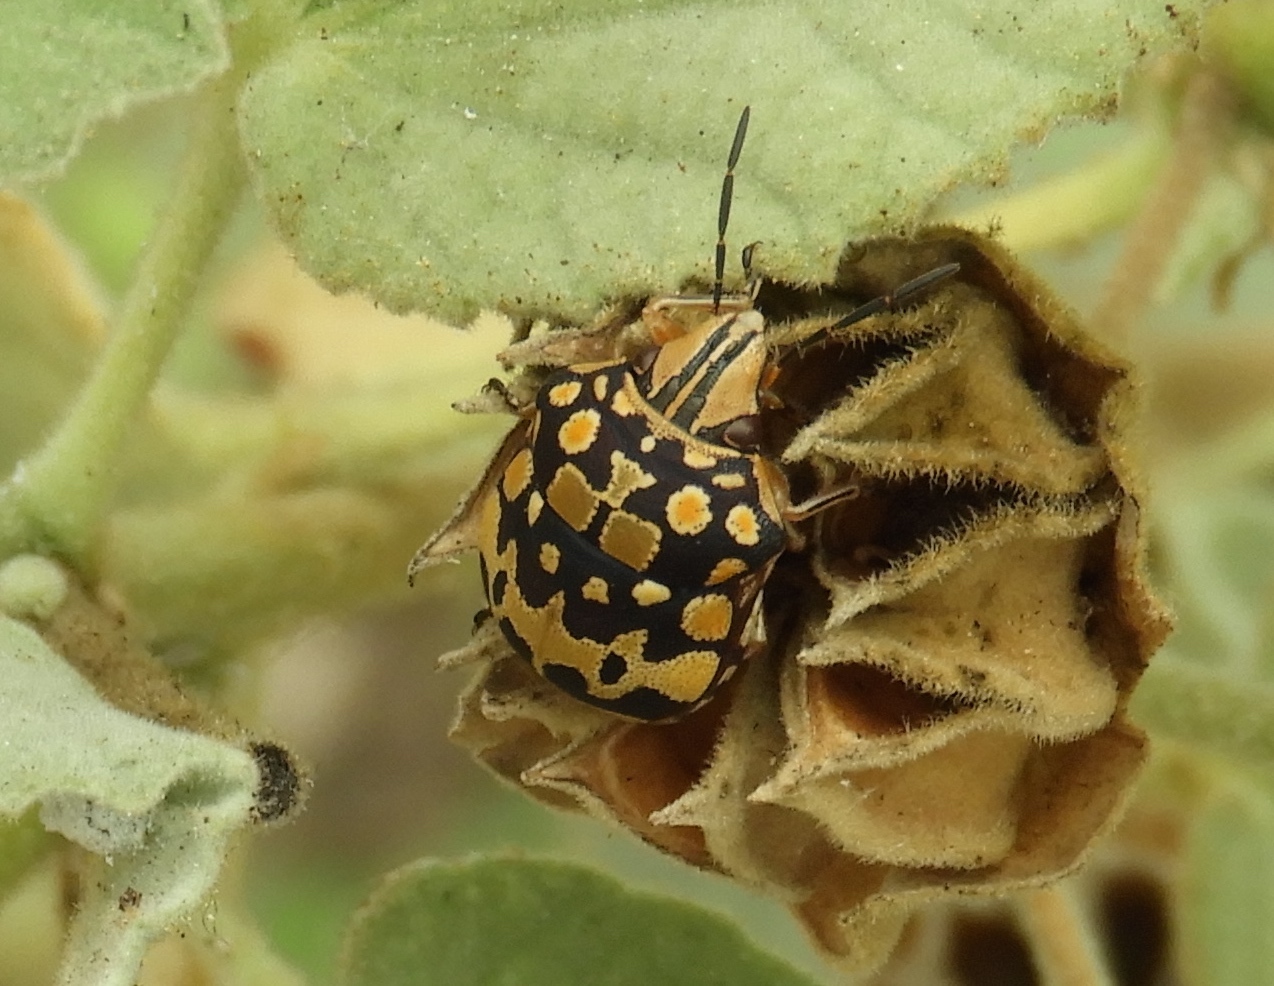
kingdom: Animalia
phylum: Arthropoda
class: Insecta
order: Hemiptera
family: Scutelleridae
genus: Orsilochides
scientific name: Orsilochides
